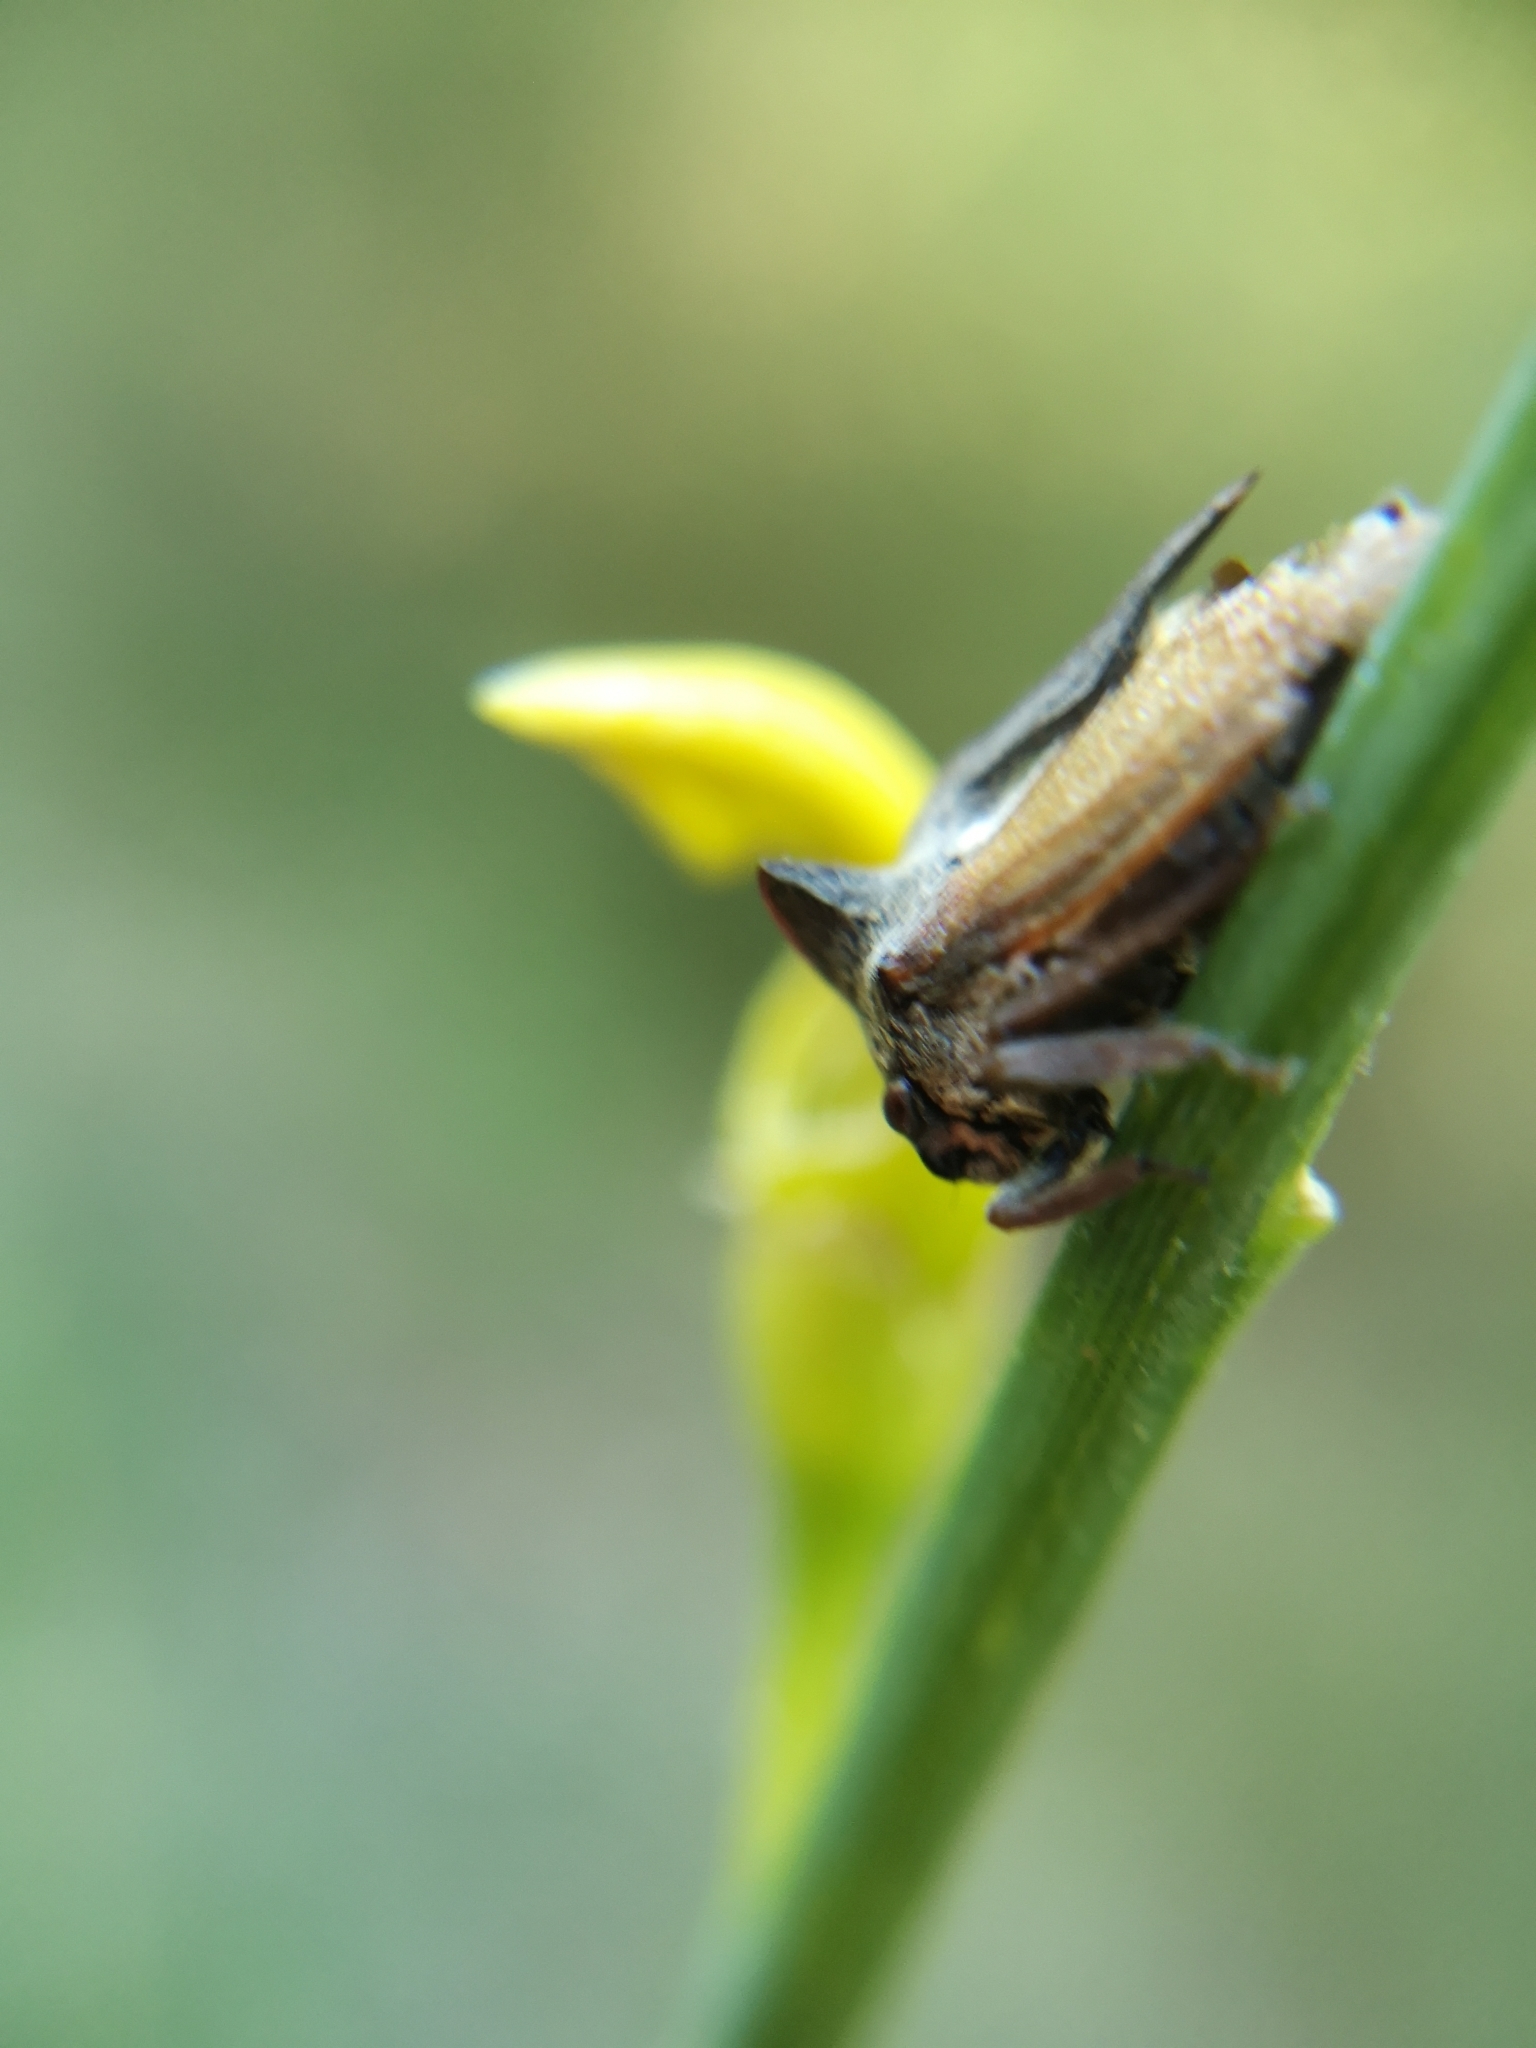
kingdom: Animalia
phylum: Arthropoda
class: Insecta
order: Hemiptera
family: Membracidae
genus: Centrotus
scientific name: Centrotus cornuta
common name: Treehopper
